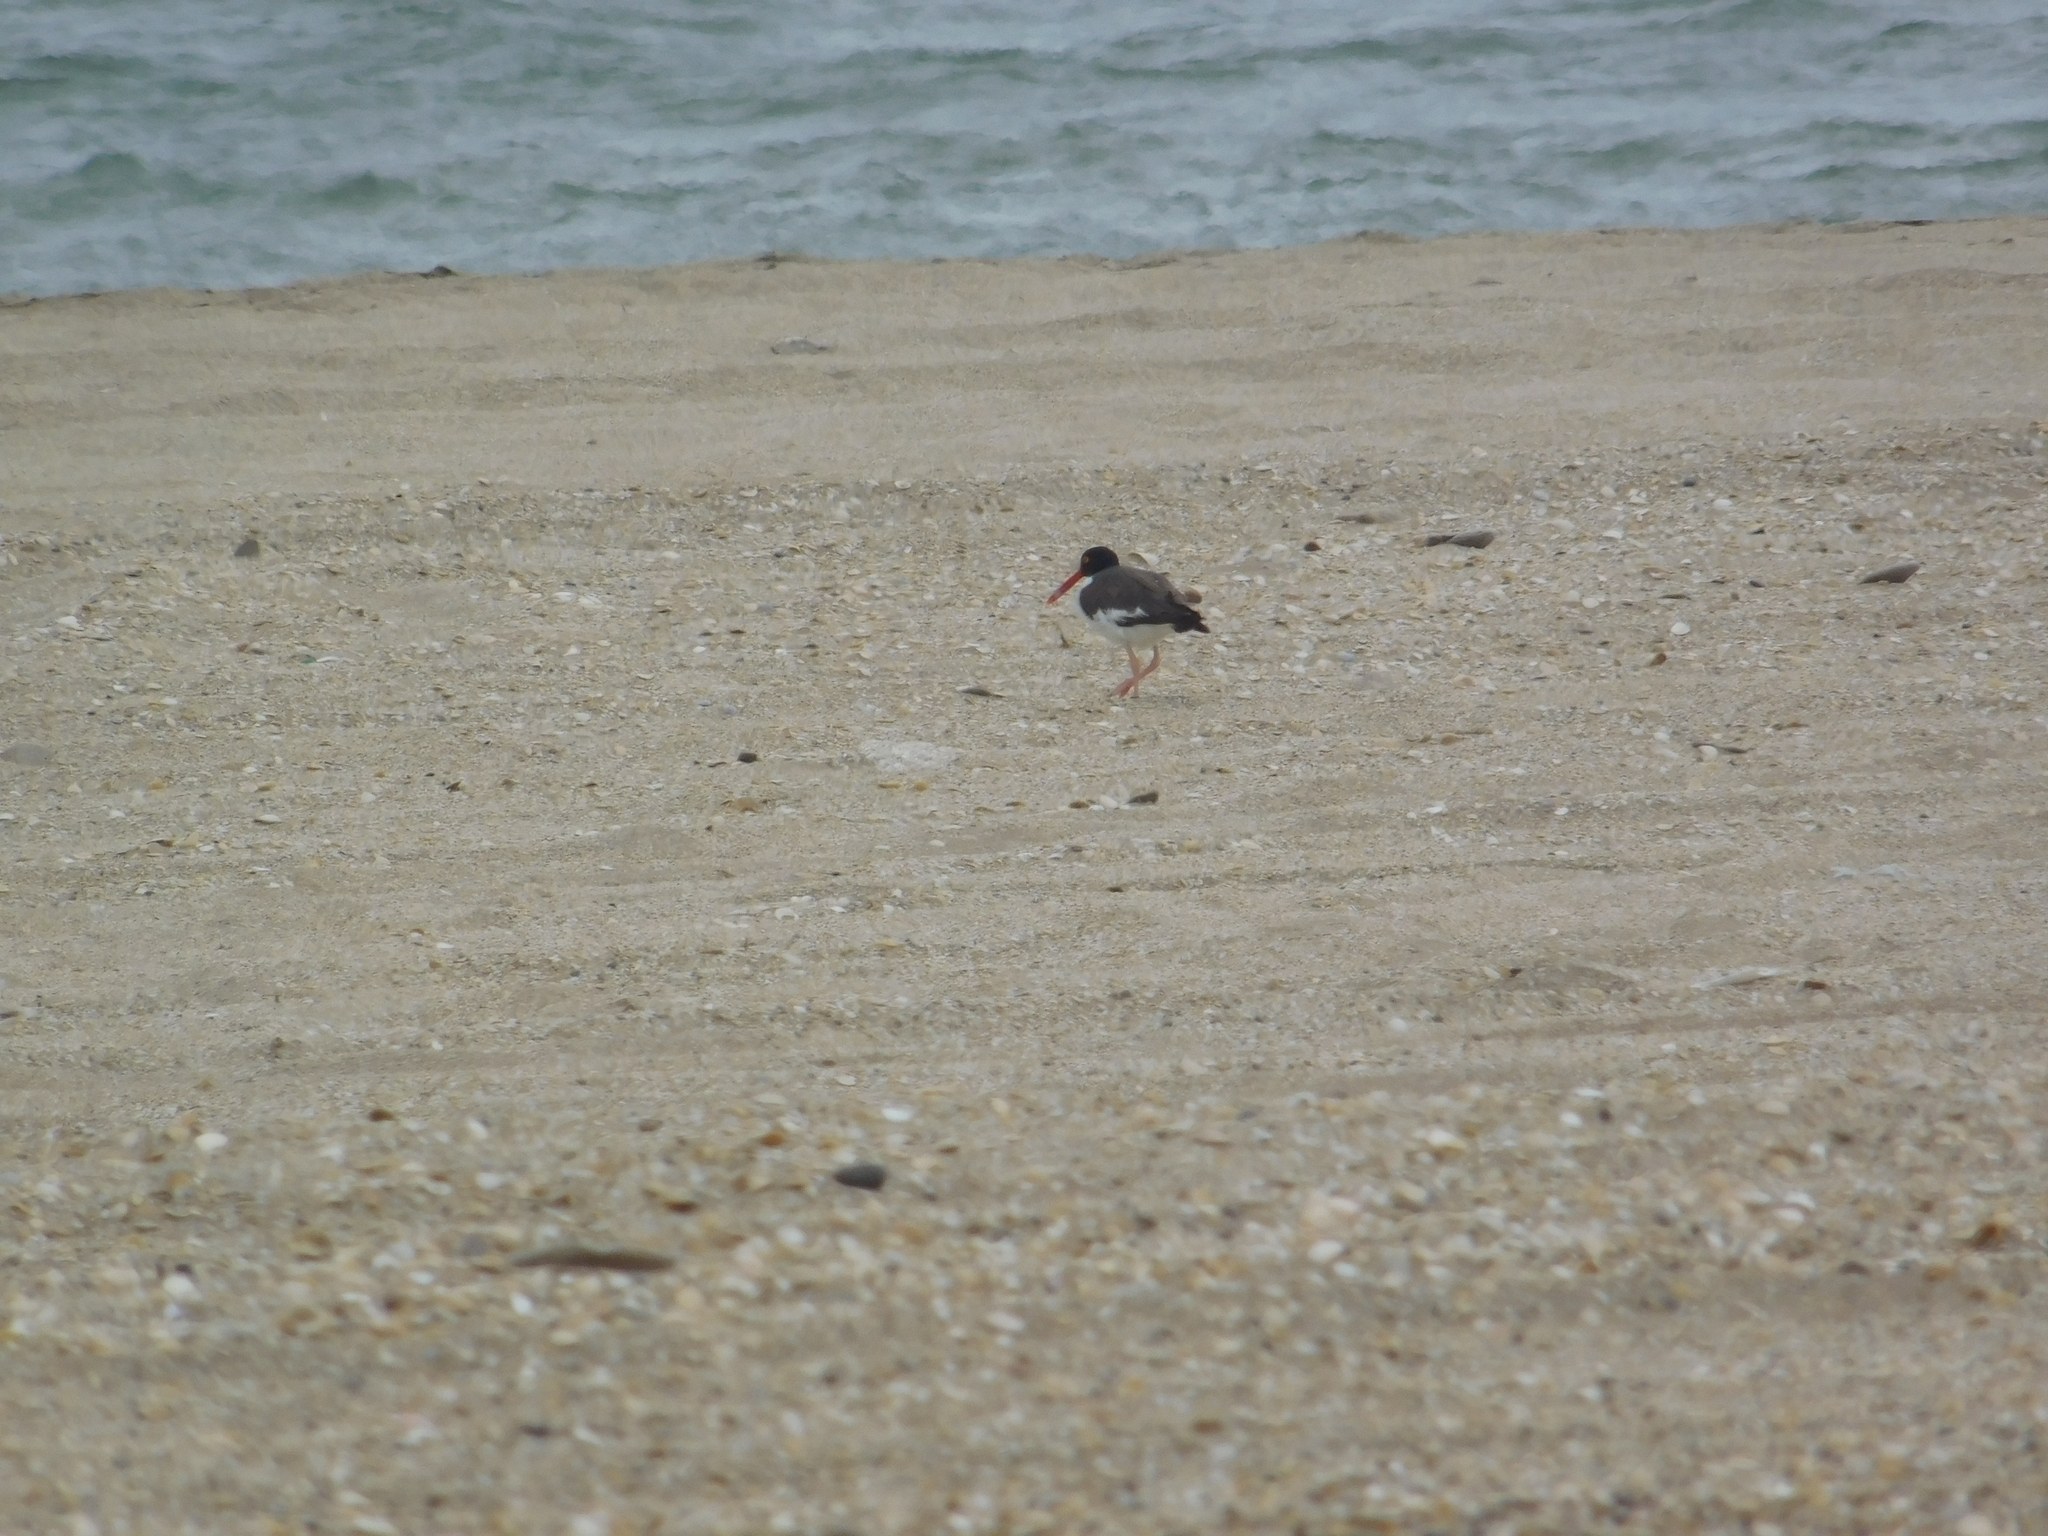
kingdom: Animalia
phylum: Chordata
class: Aves
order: Charadriiformes
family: Haematopodidae
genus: Haematopus
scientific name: Haematopus palliatus
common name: American oystercatcher
